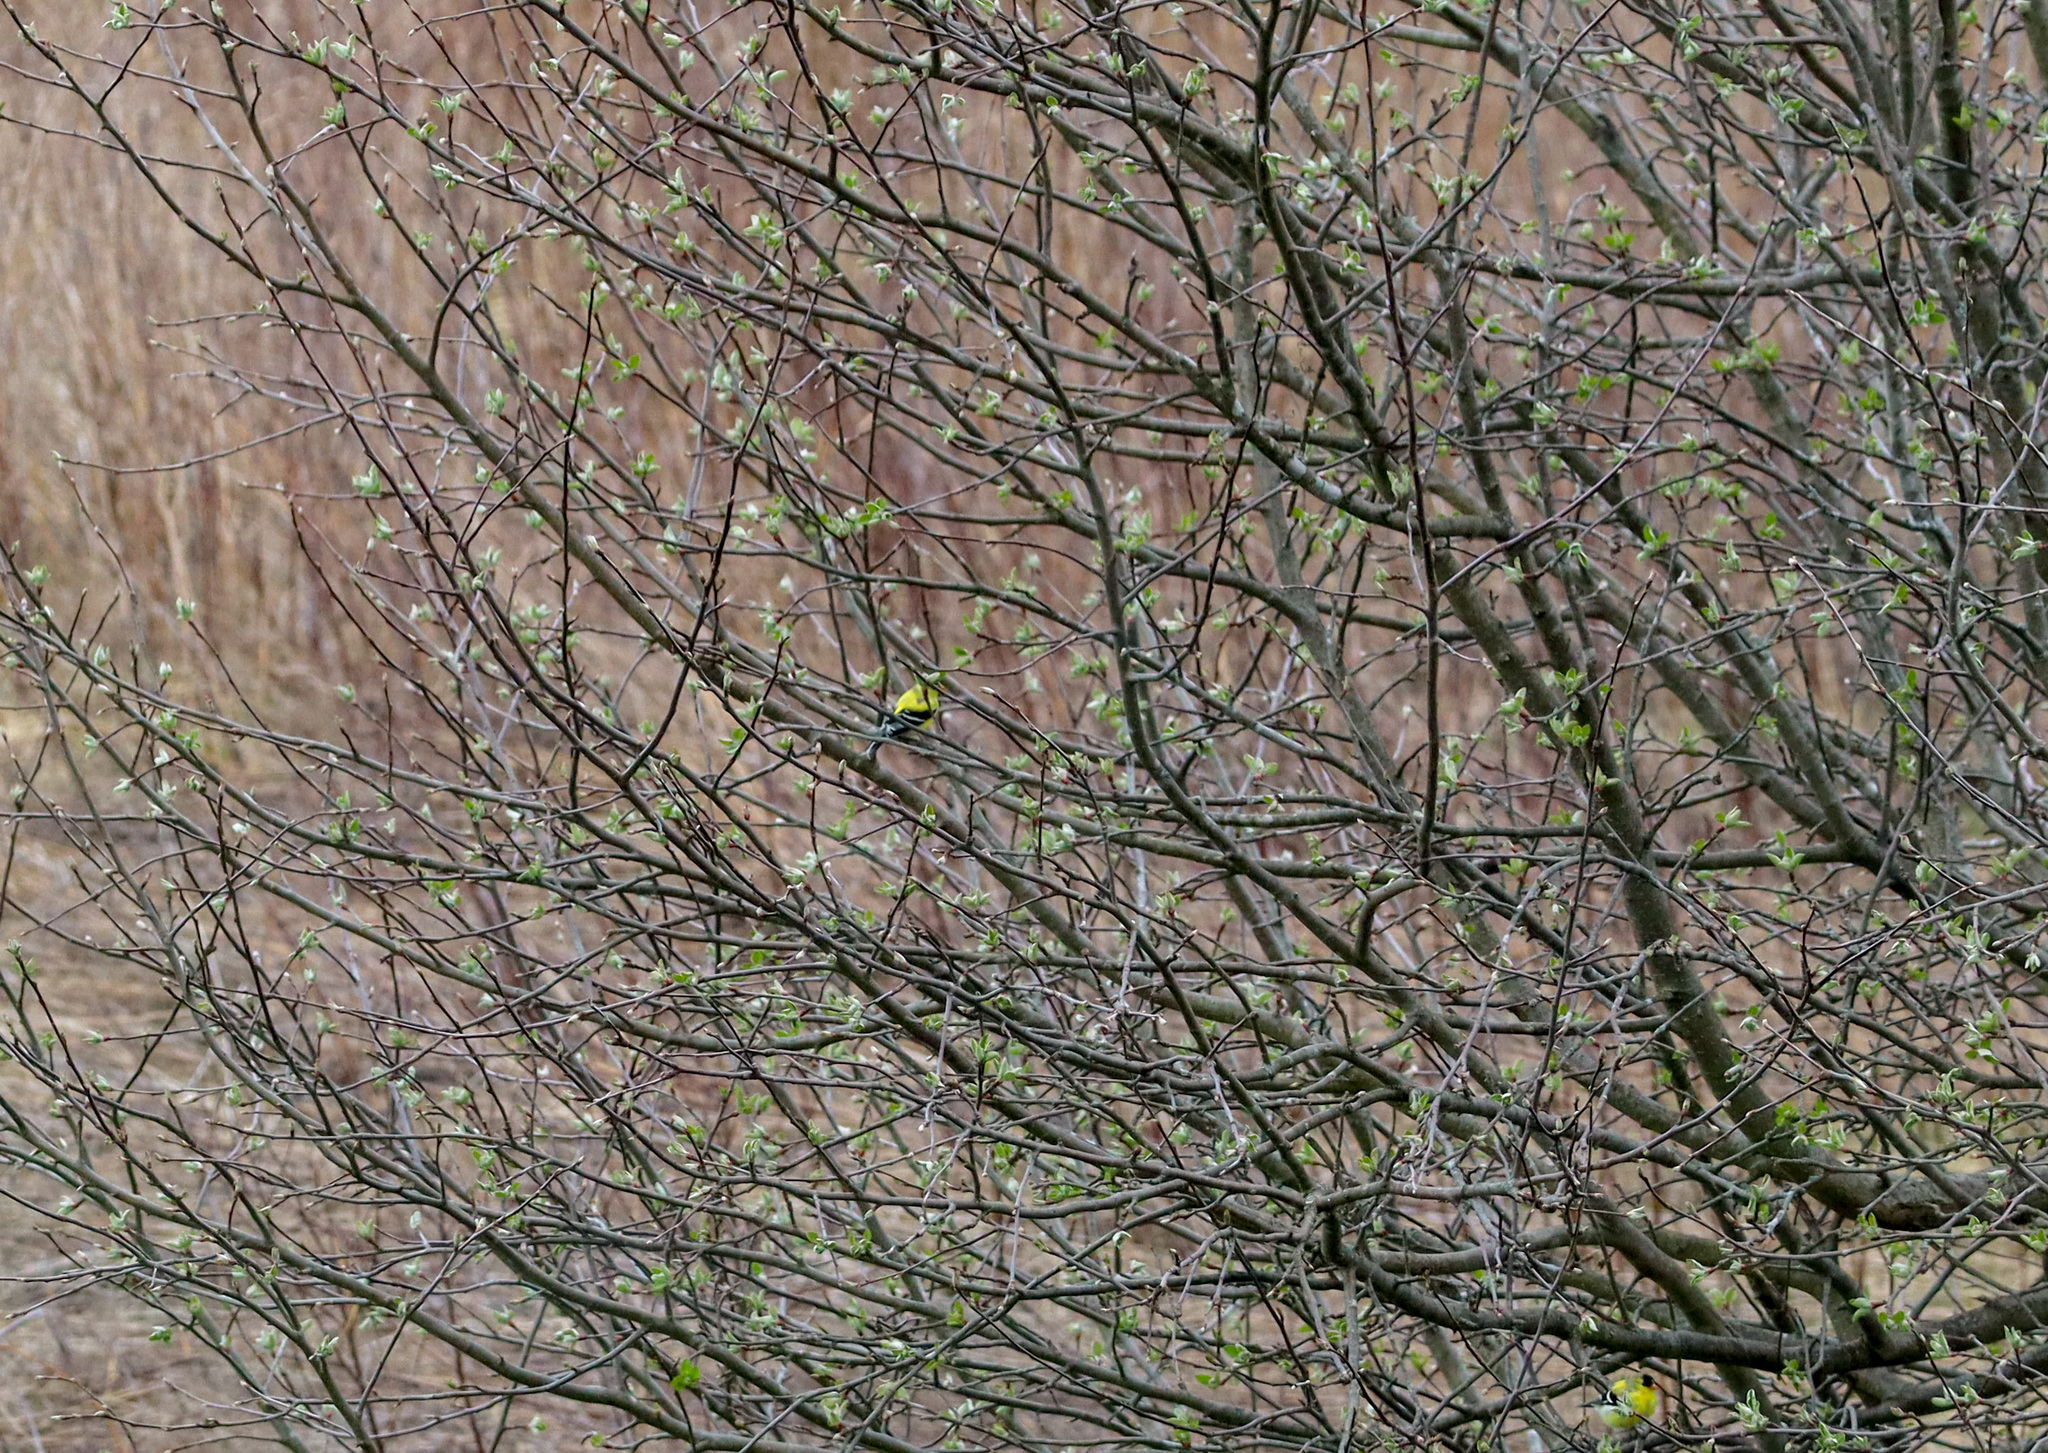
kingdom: Animalia
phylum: Chordata
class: Aves
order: Passeriformes
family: Fringillidae
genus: Spinus
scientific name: Spinus tristis
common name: American goldfinch
